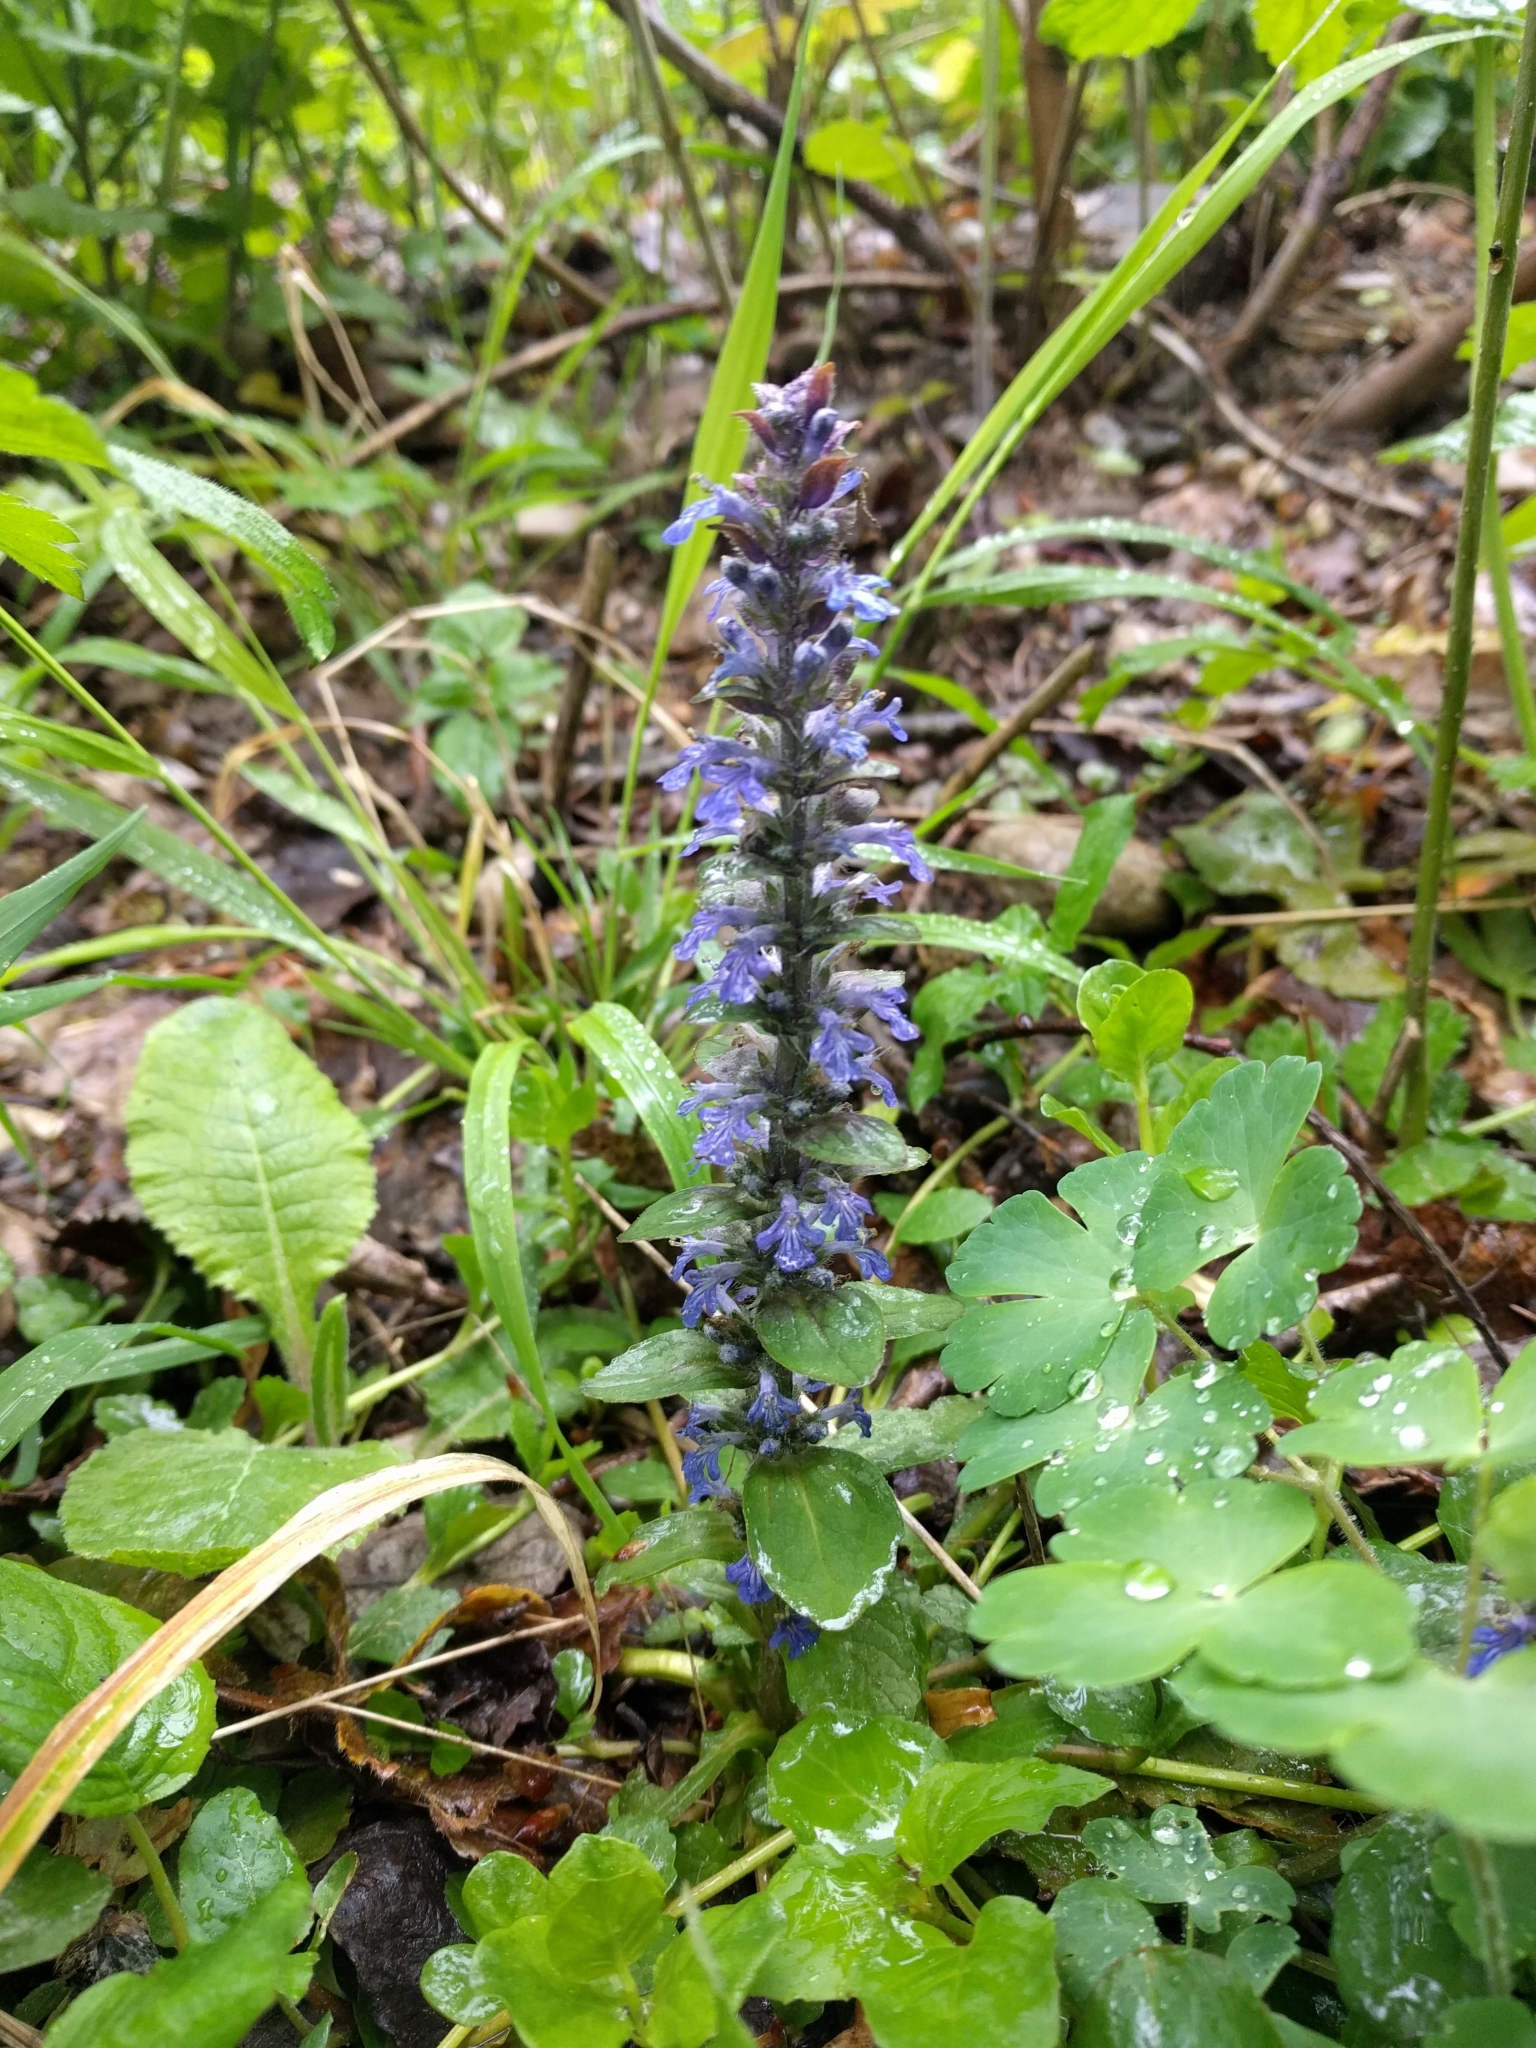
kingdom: Plantae
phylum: Tracheophyta
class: Magnoliopsida
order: Lamiales
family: Lamiaceae
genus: Ajuga
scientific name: Ajuga reptans
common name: Bugle
